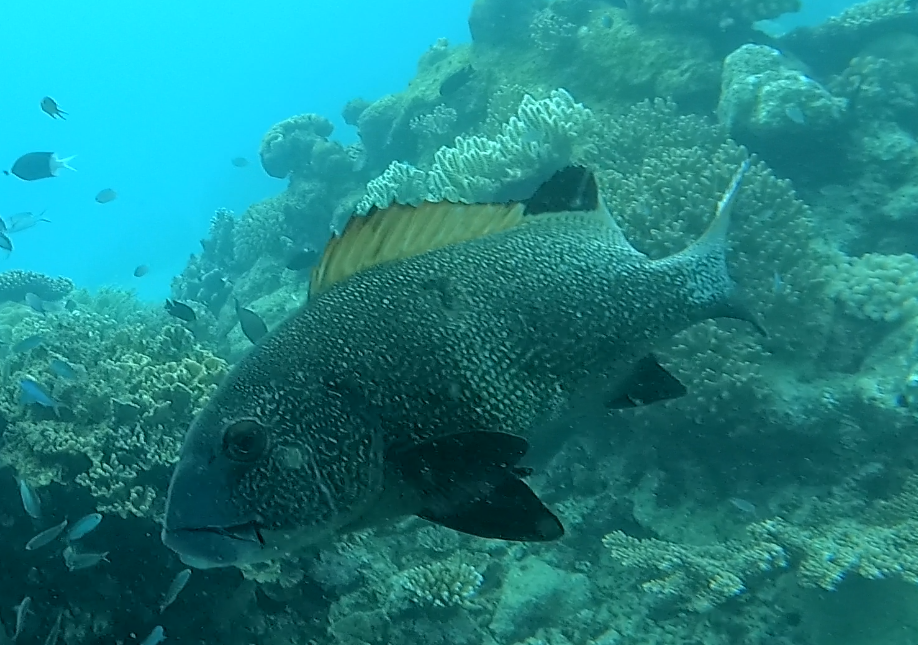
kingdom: Animalia
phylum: Chordata
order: Perciformes
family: Haemulidae
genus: Plectorhinchus
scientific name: Plectorhinchus albovittatus
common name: Giant sweetlips
